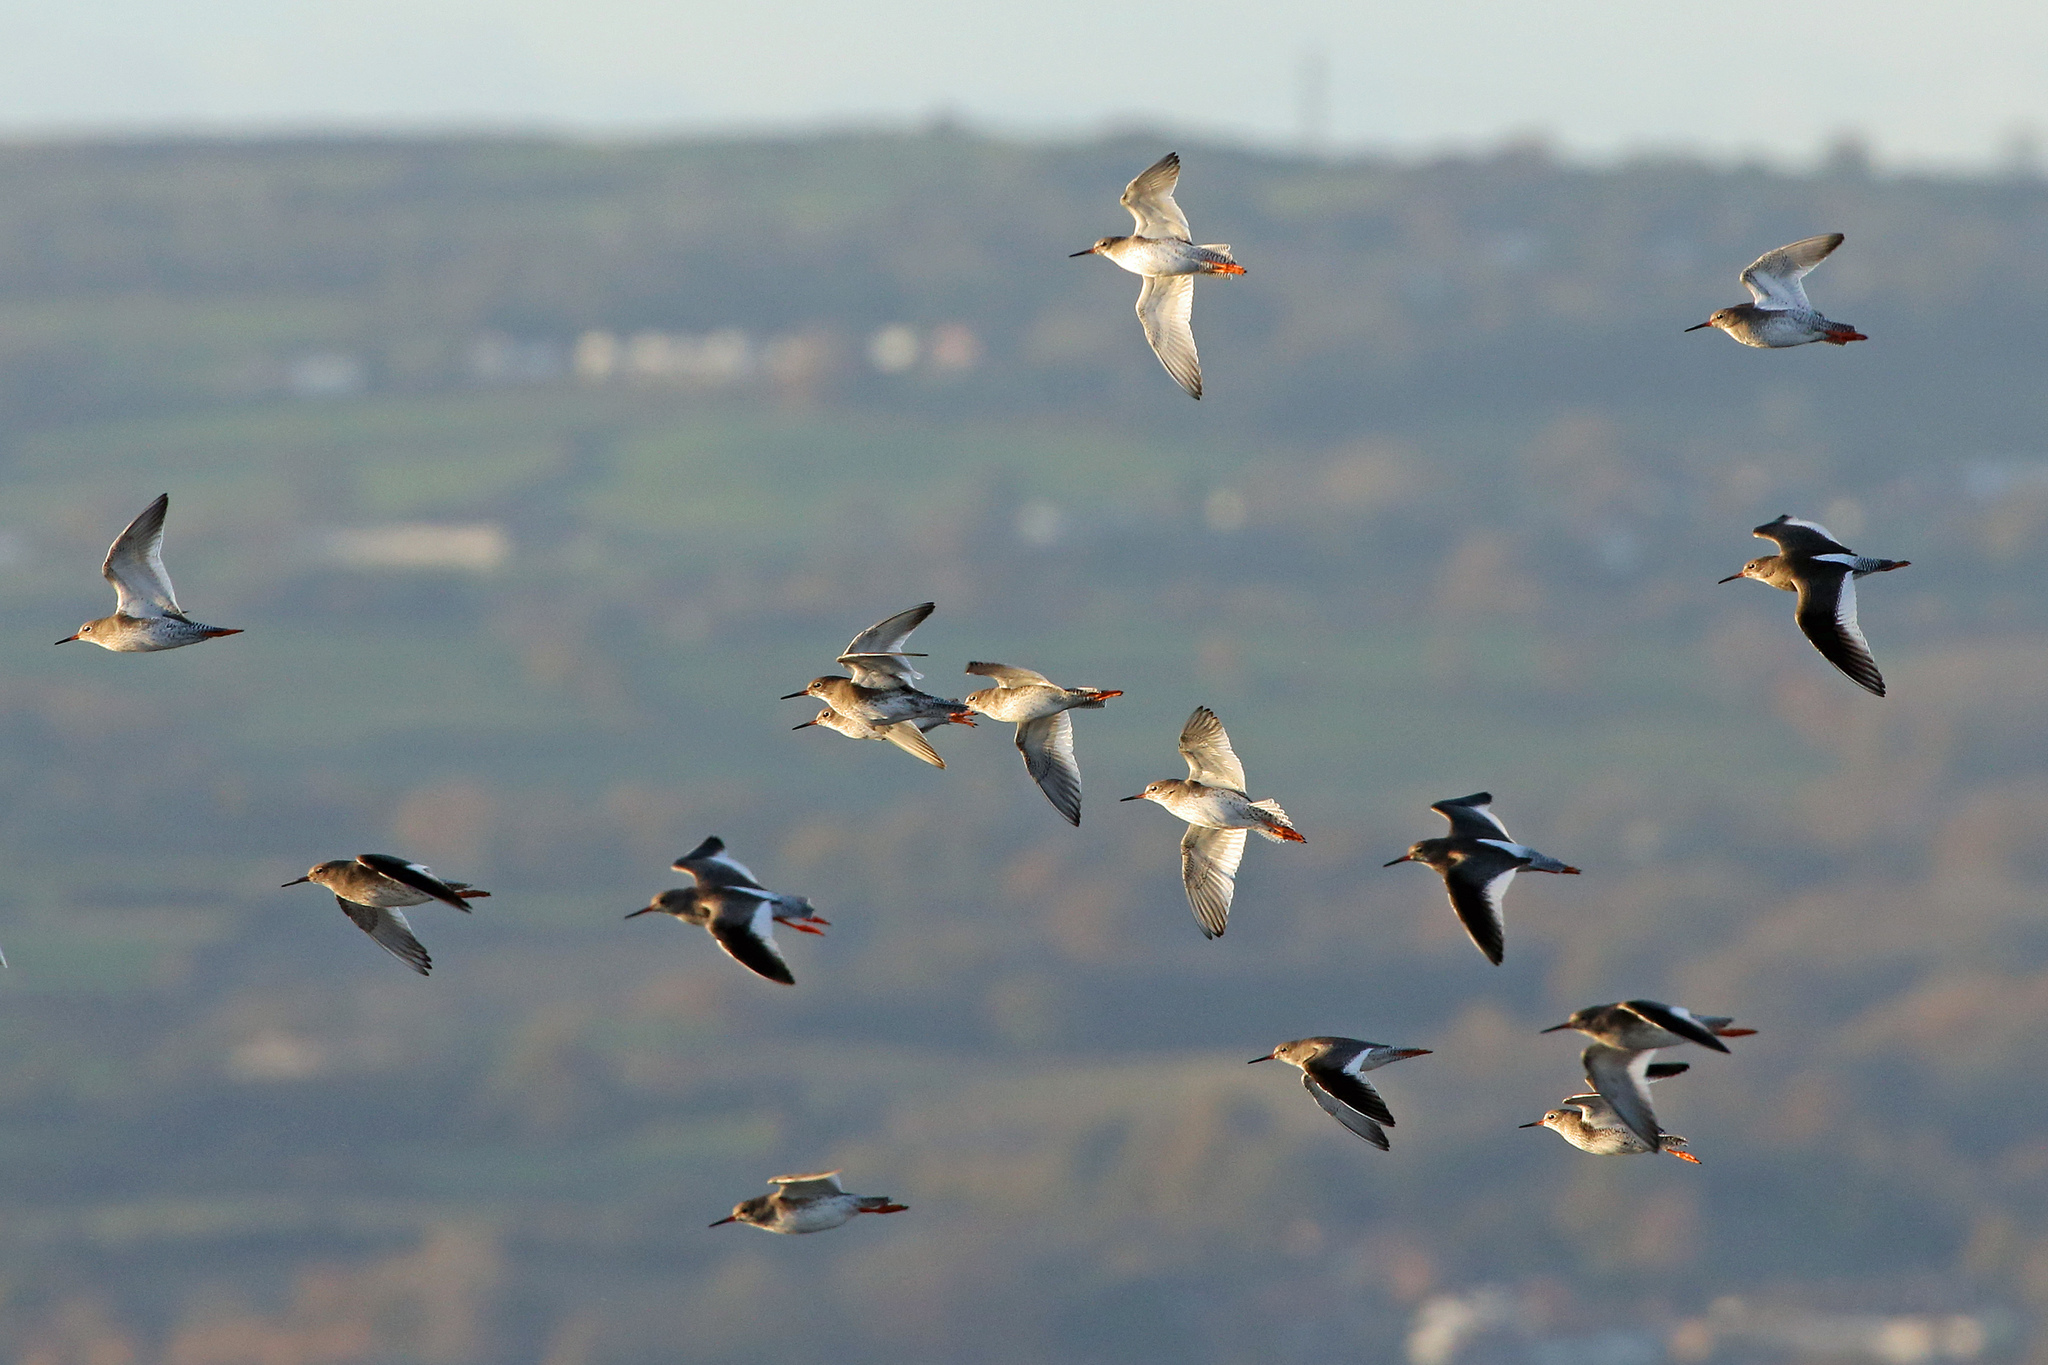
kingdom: Animalia
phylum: Chordata
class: Aves
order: Charadriiformes
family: Scolopacidae
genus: Tringa
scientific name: Tringa totanus
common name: Common redshank
